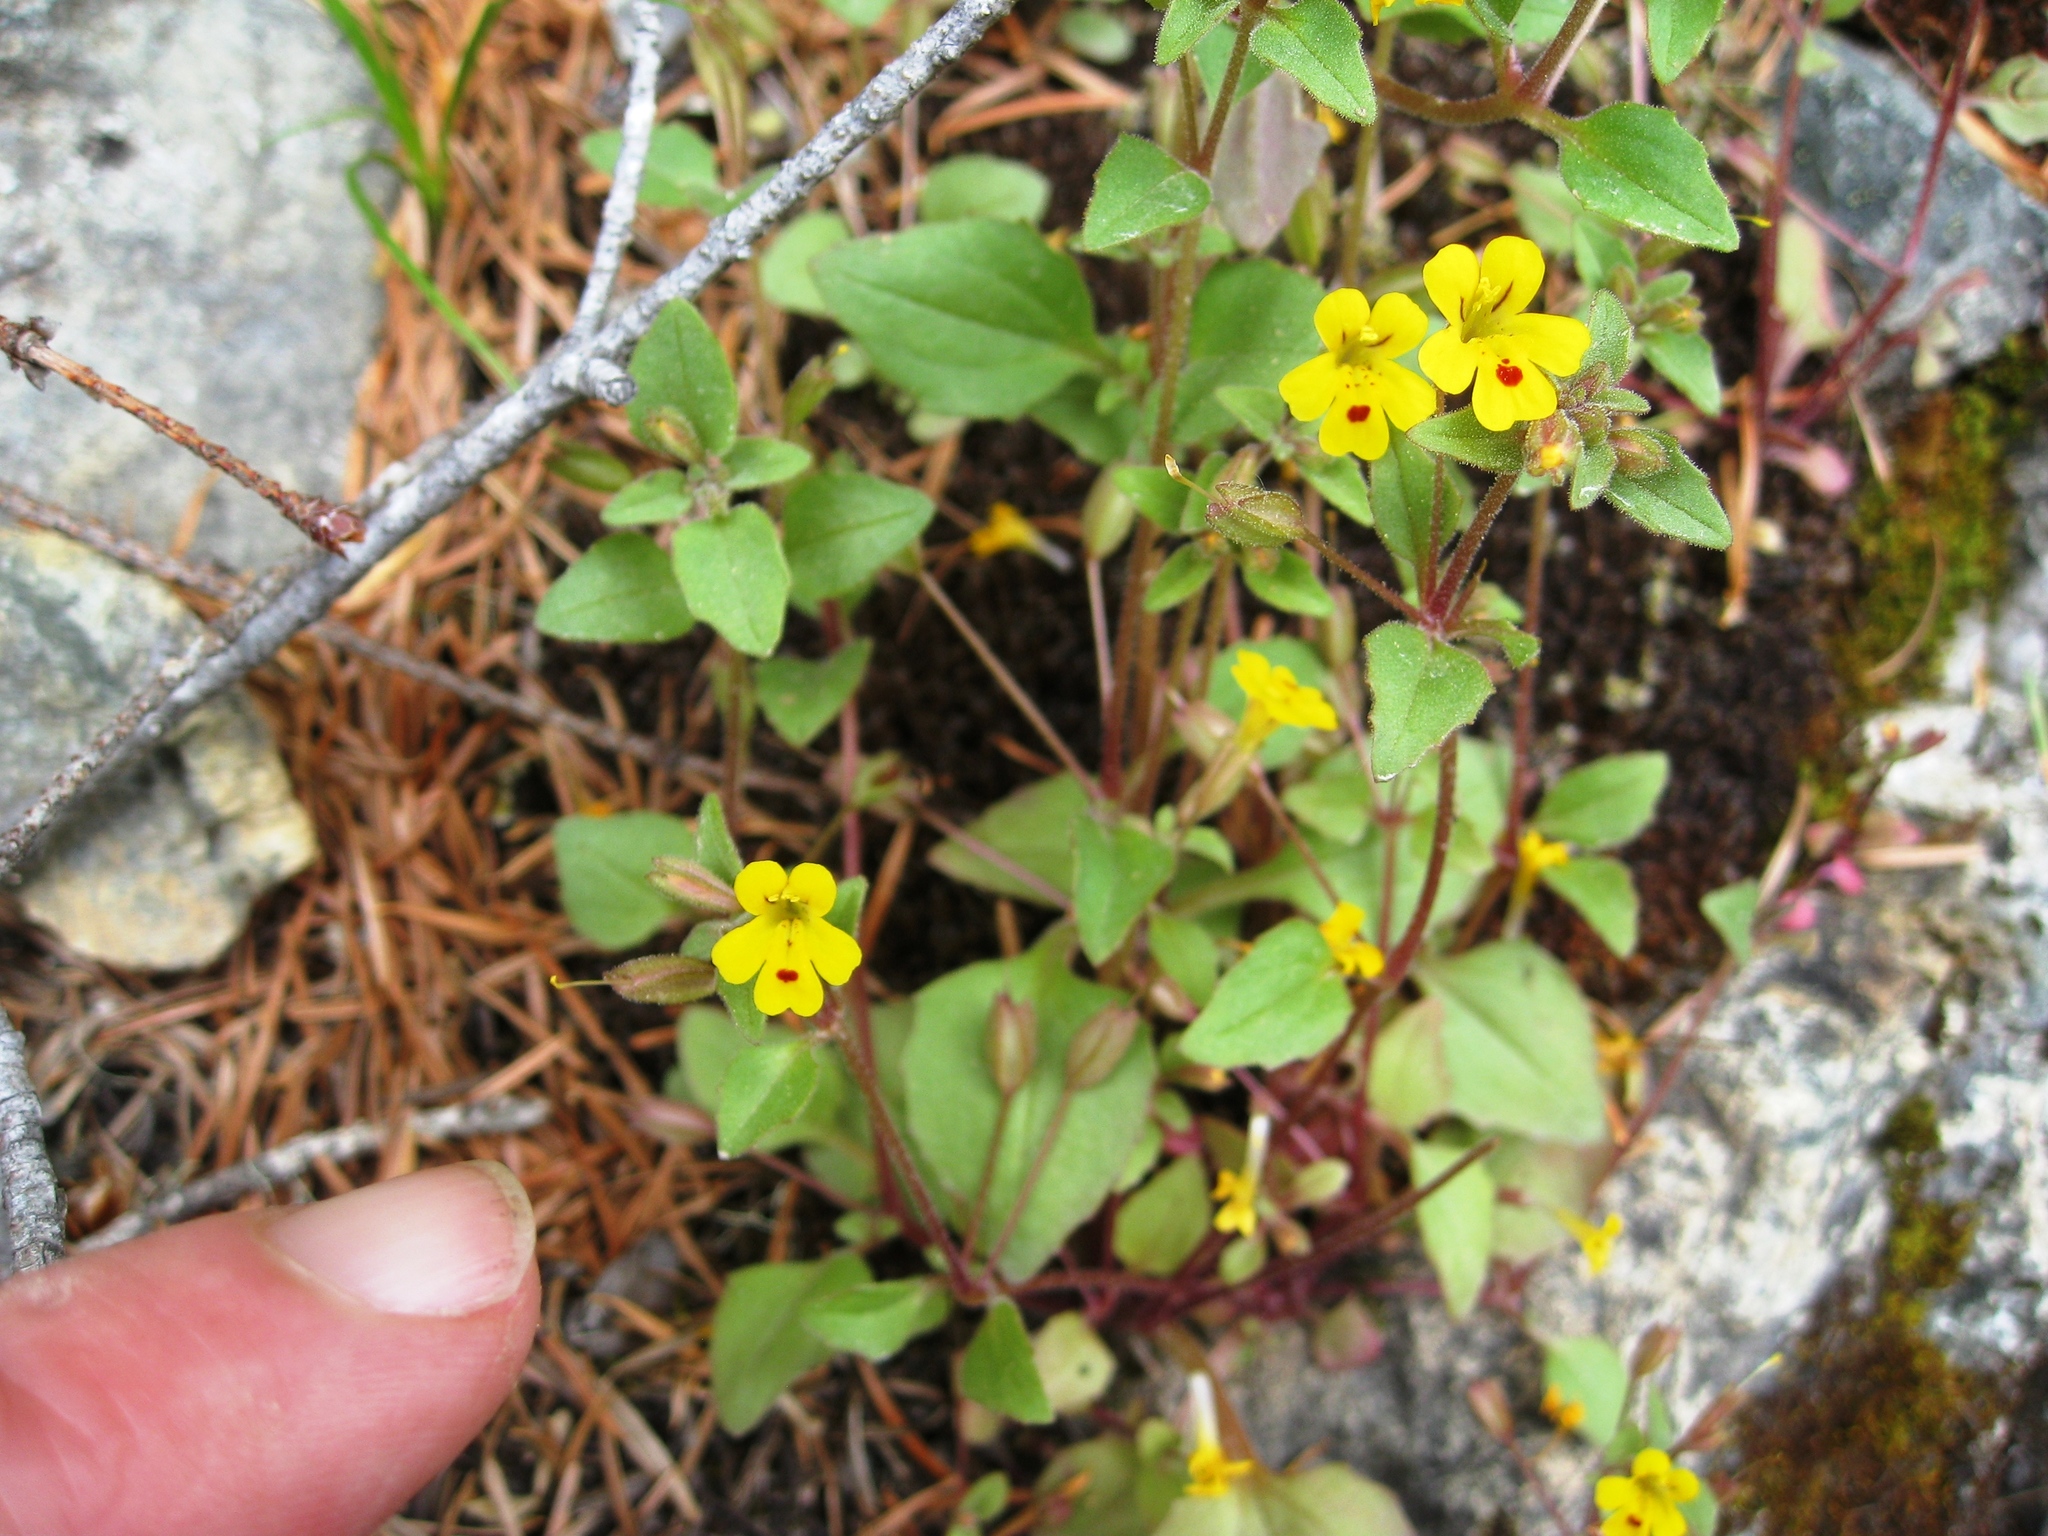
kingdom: Plantae
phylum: Tracheophyta
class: Magnoliopsida
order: Lamiales
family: Phrymaceae
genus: Erythranthe
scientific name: Erythranthe alsinoides
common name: Chickweed monkeyflower
